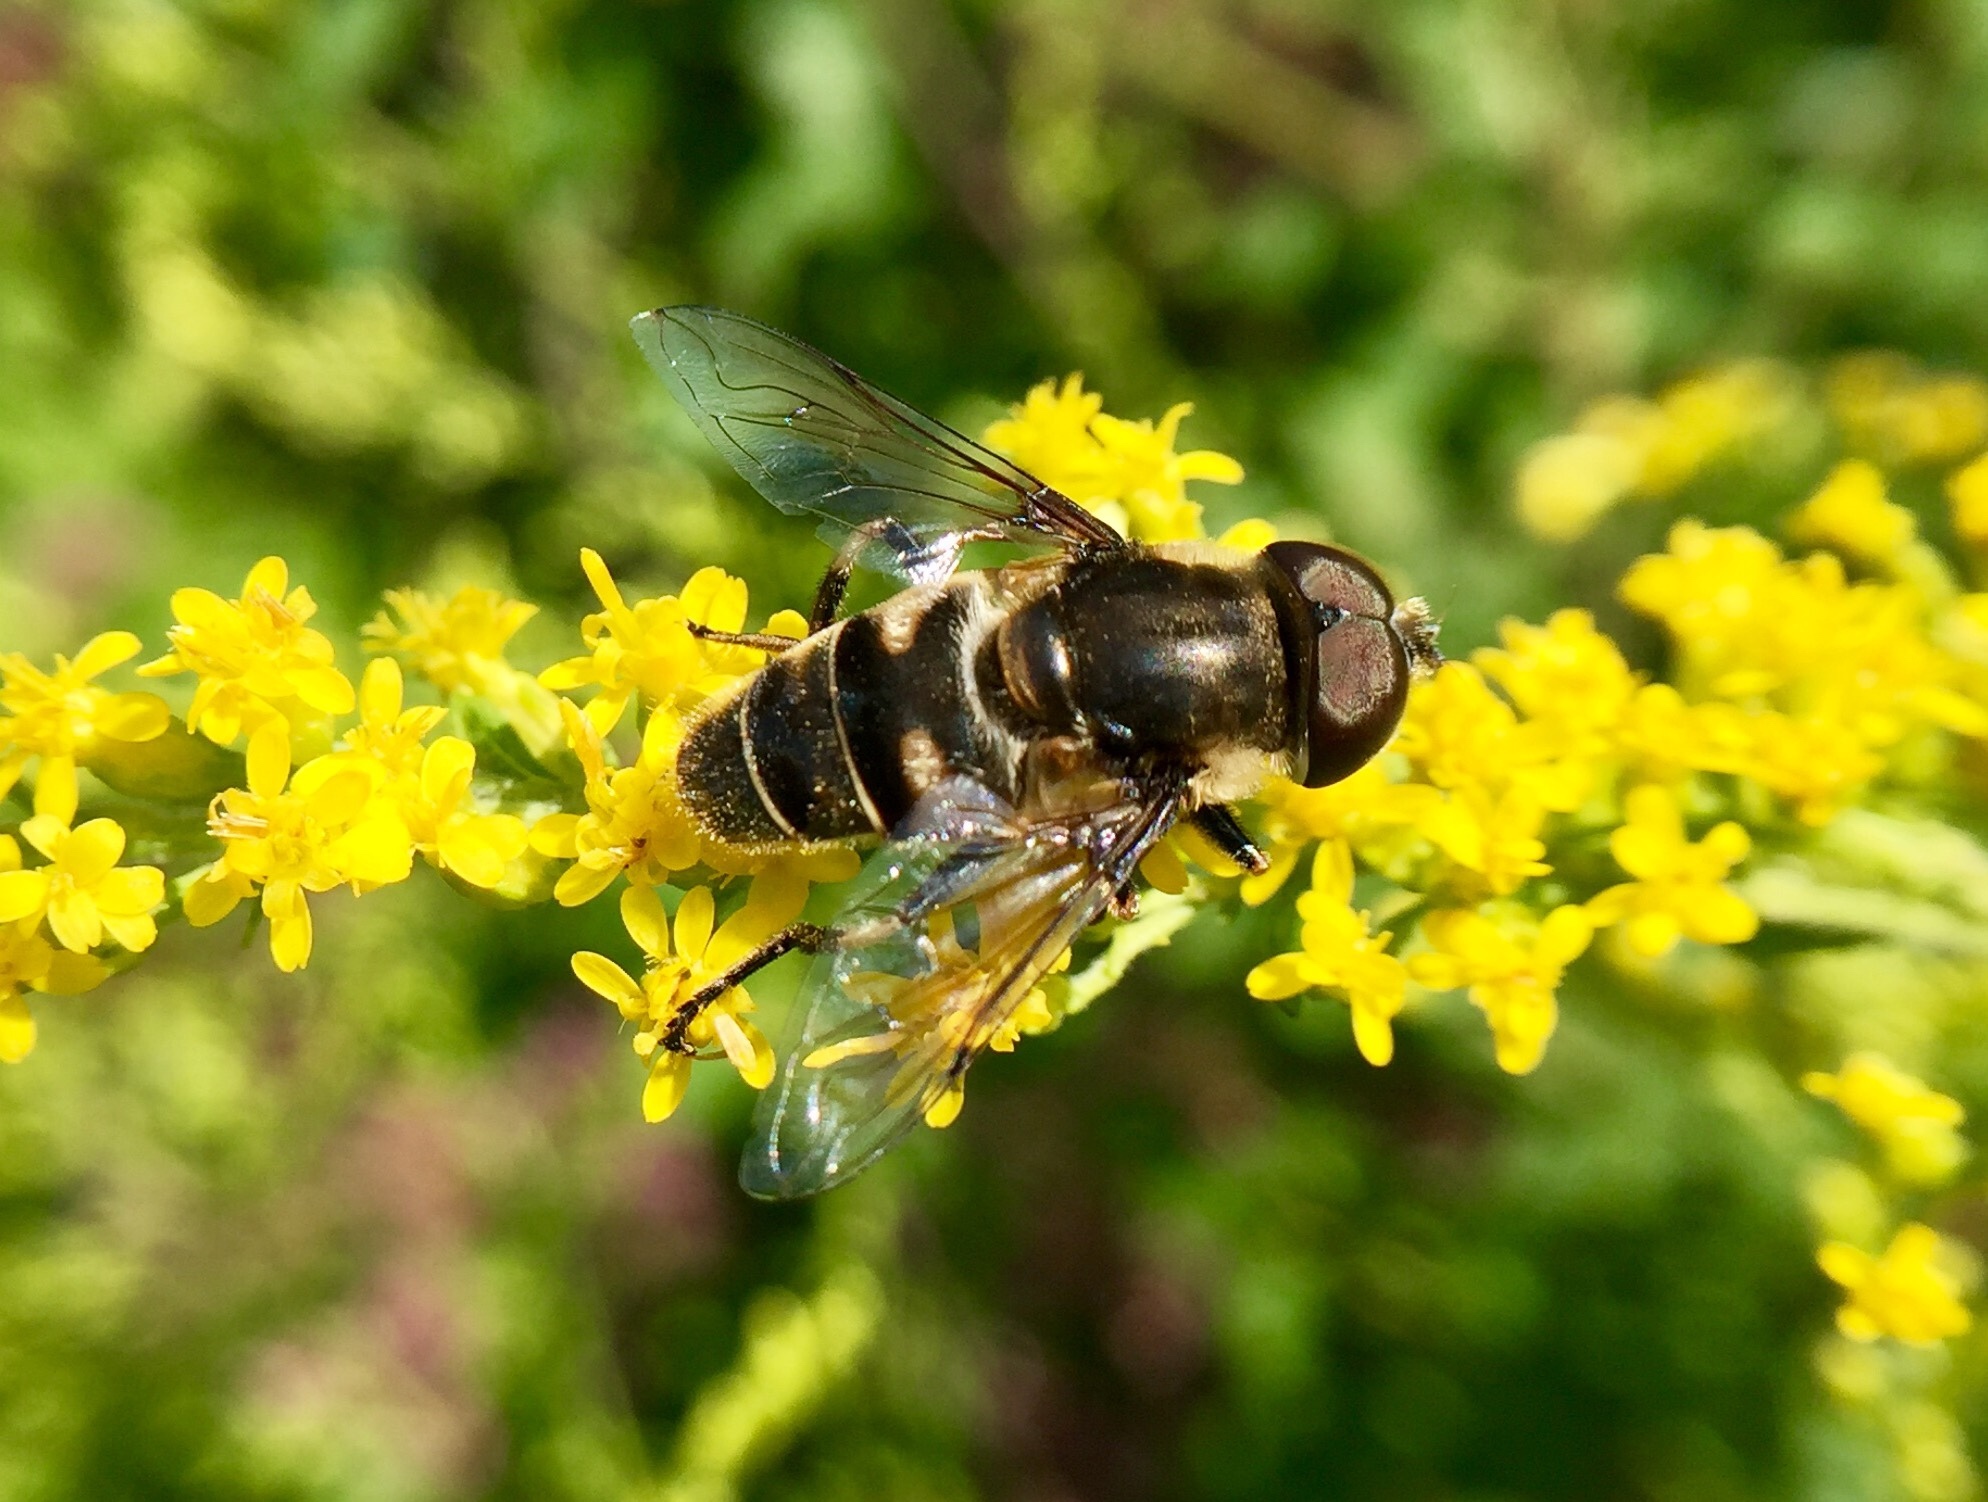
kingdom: Animalia
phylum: Arthropoda
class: Insecta
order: Diptera
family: Syrphidae
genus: Eristalis
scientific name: Eristalis dimidiata
